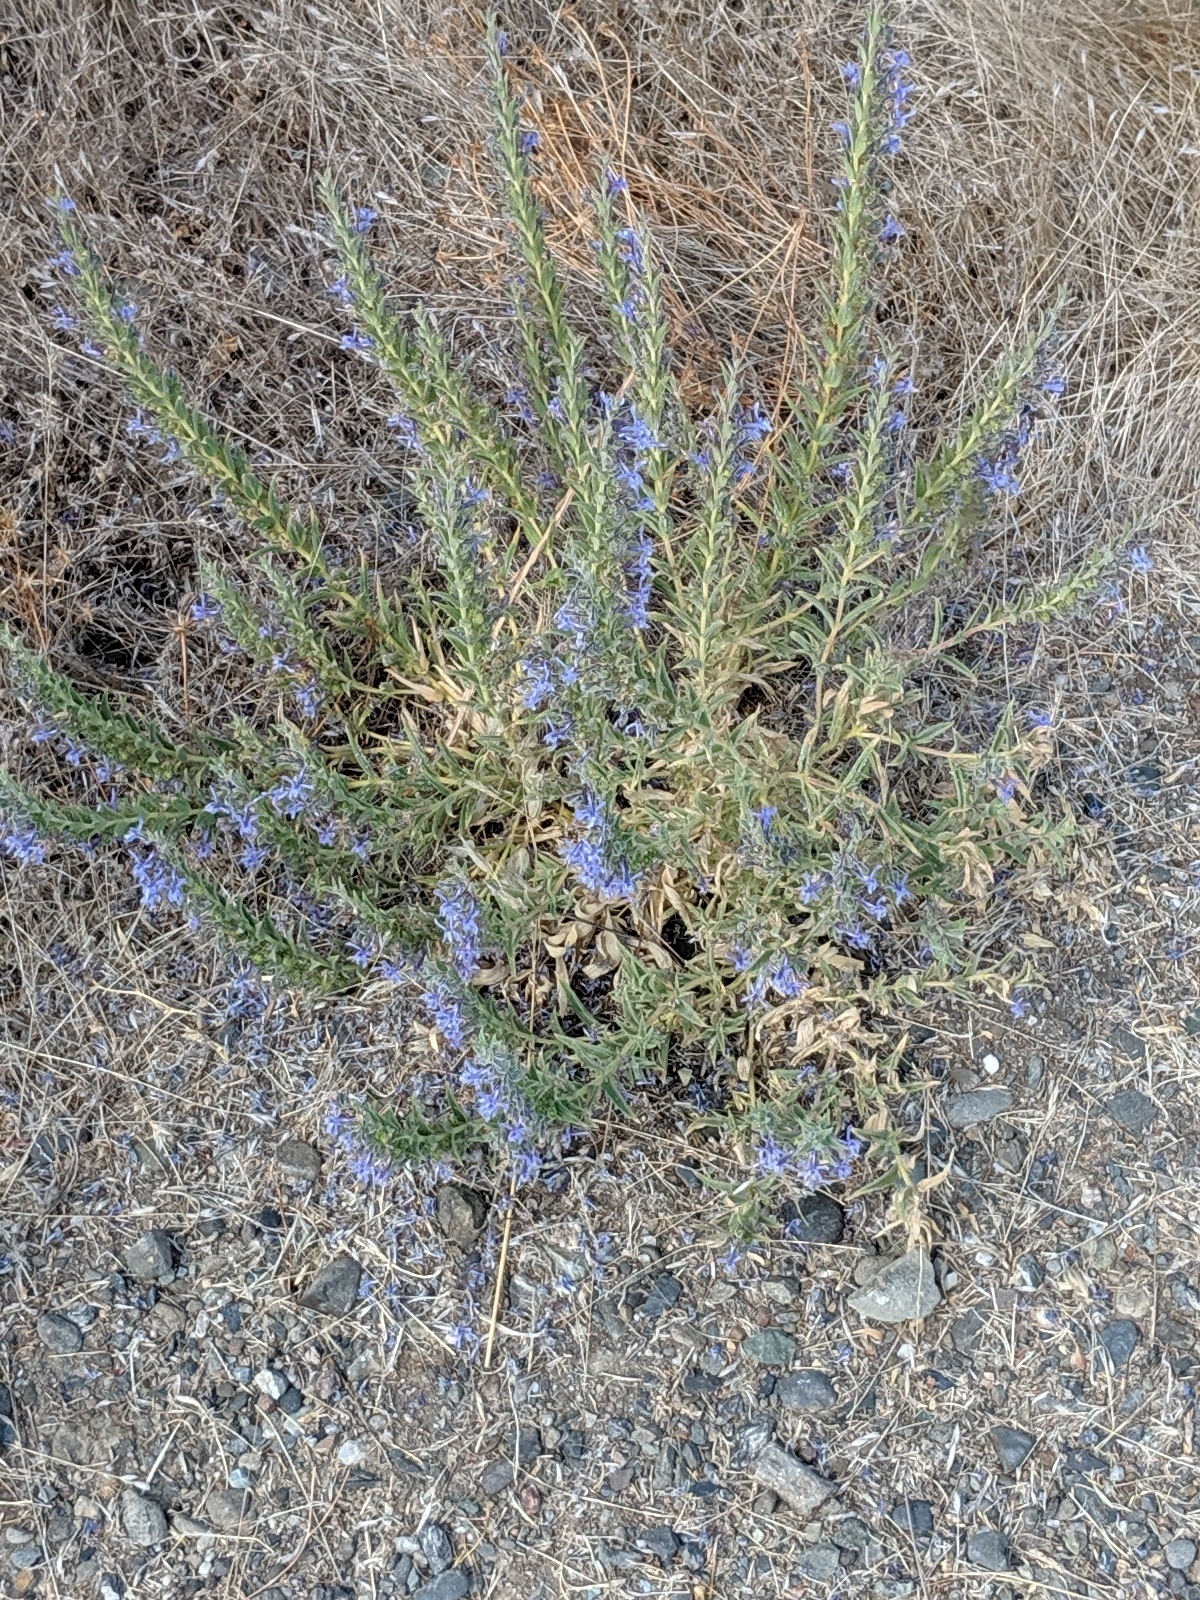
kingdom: Plantae
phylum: Tracheophyta
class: Magnoliopsida
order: Lamiales
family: Lamiaceae
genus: Trichostema
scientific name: Trichostema lanceolatum
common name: Vinegar-weed
